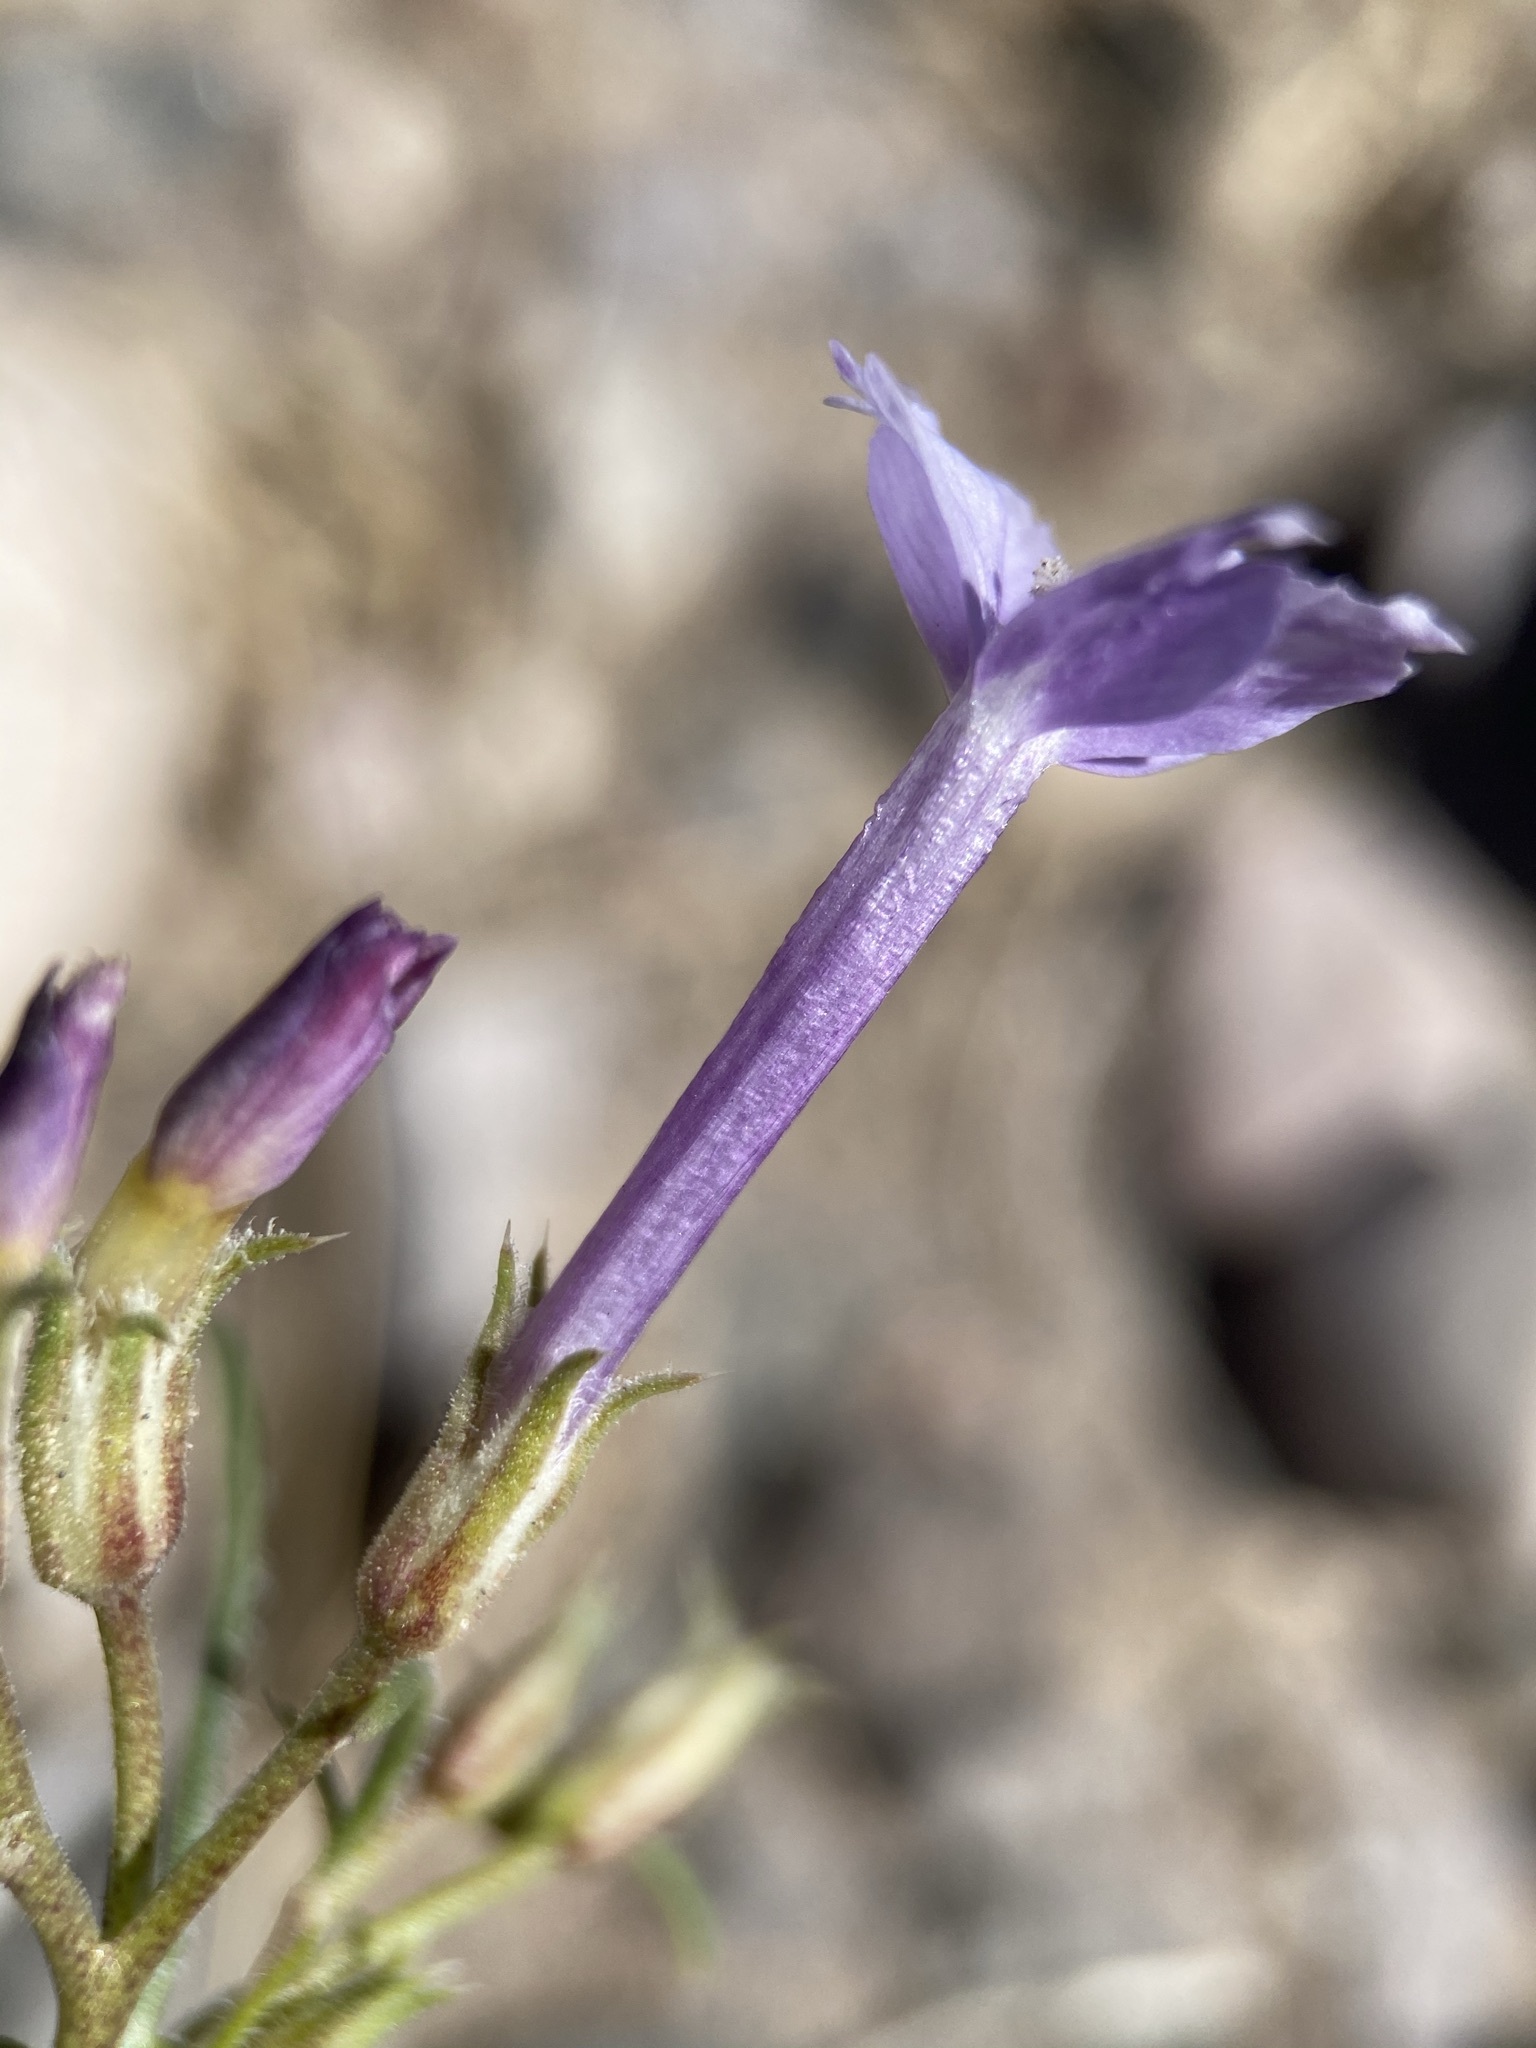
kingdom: Plantae
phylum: Tracheophyta
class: Magnoliopsida
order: Ericales
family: Polemoniaceae
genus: Ipomopsis
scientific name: Ipomopsis laxiflora
